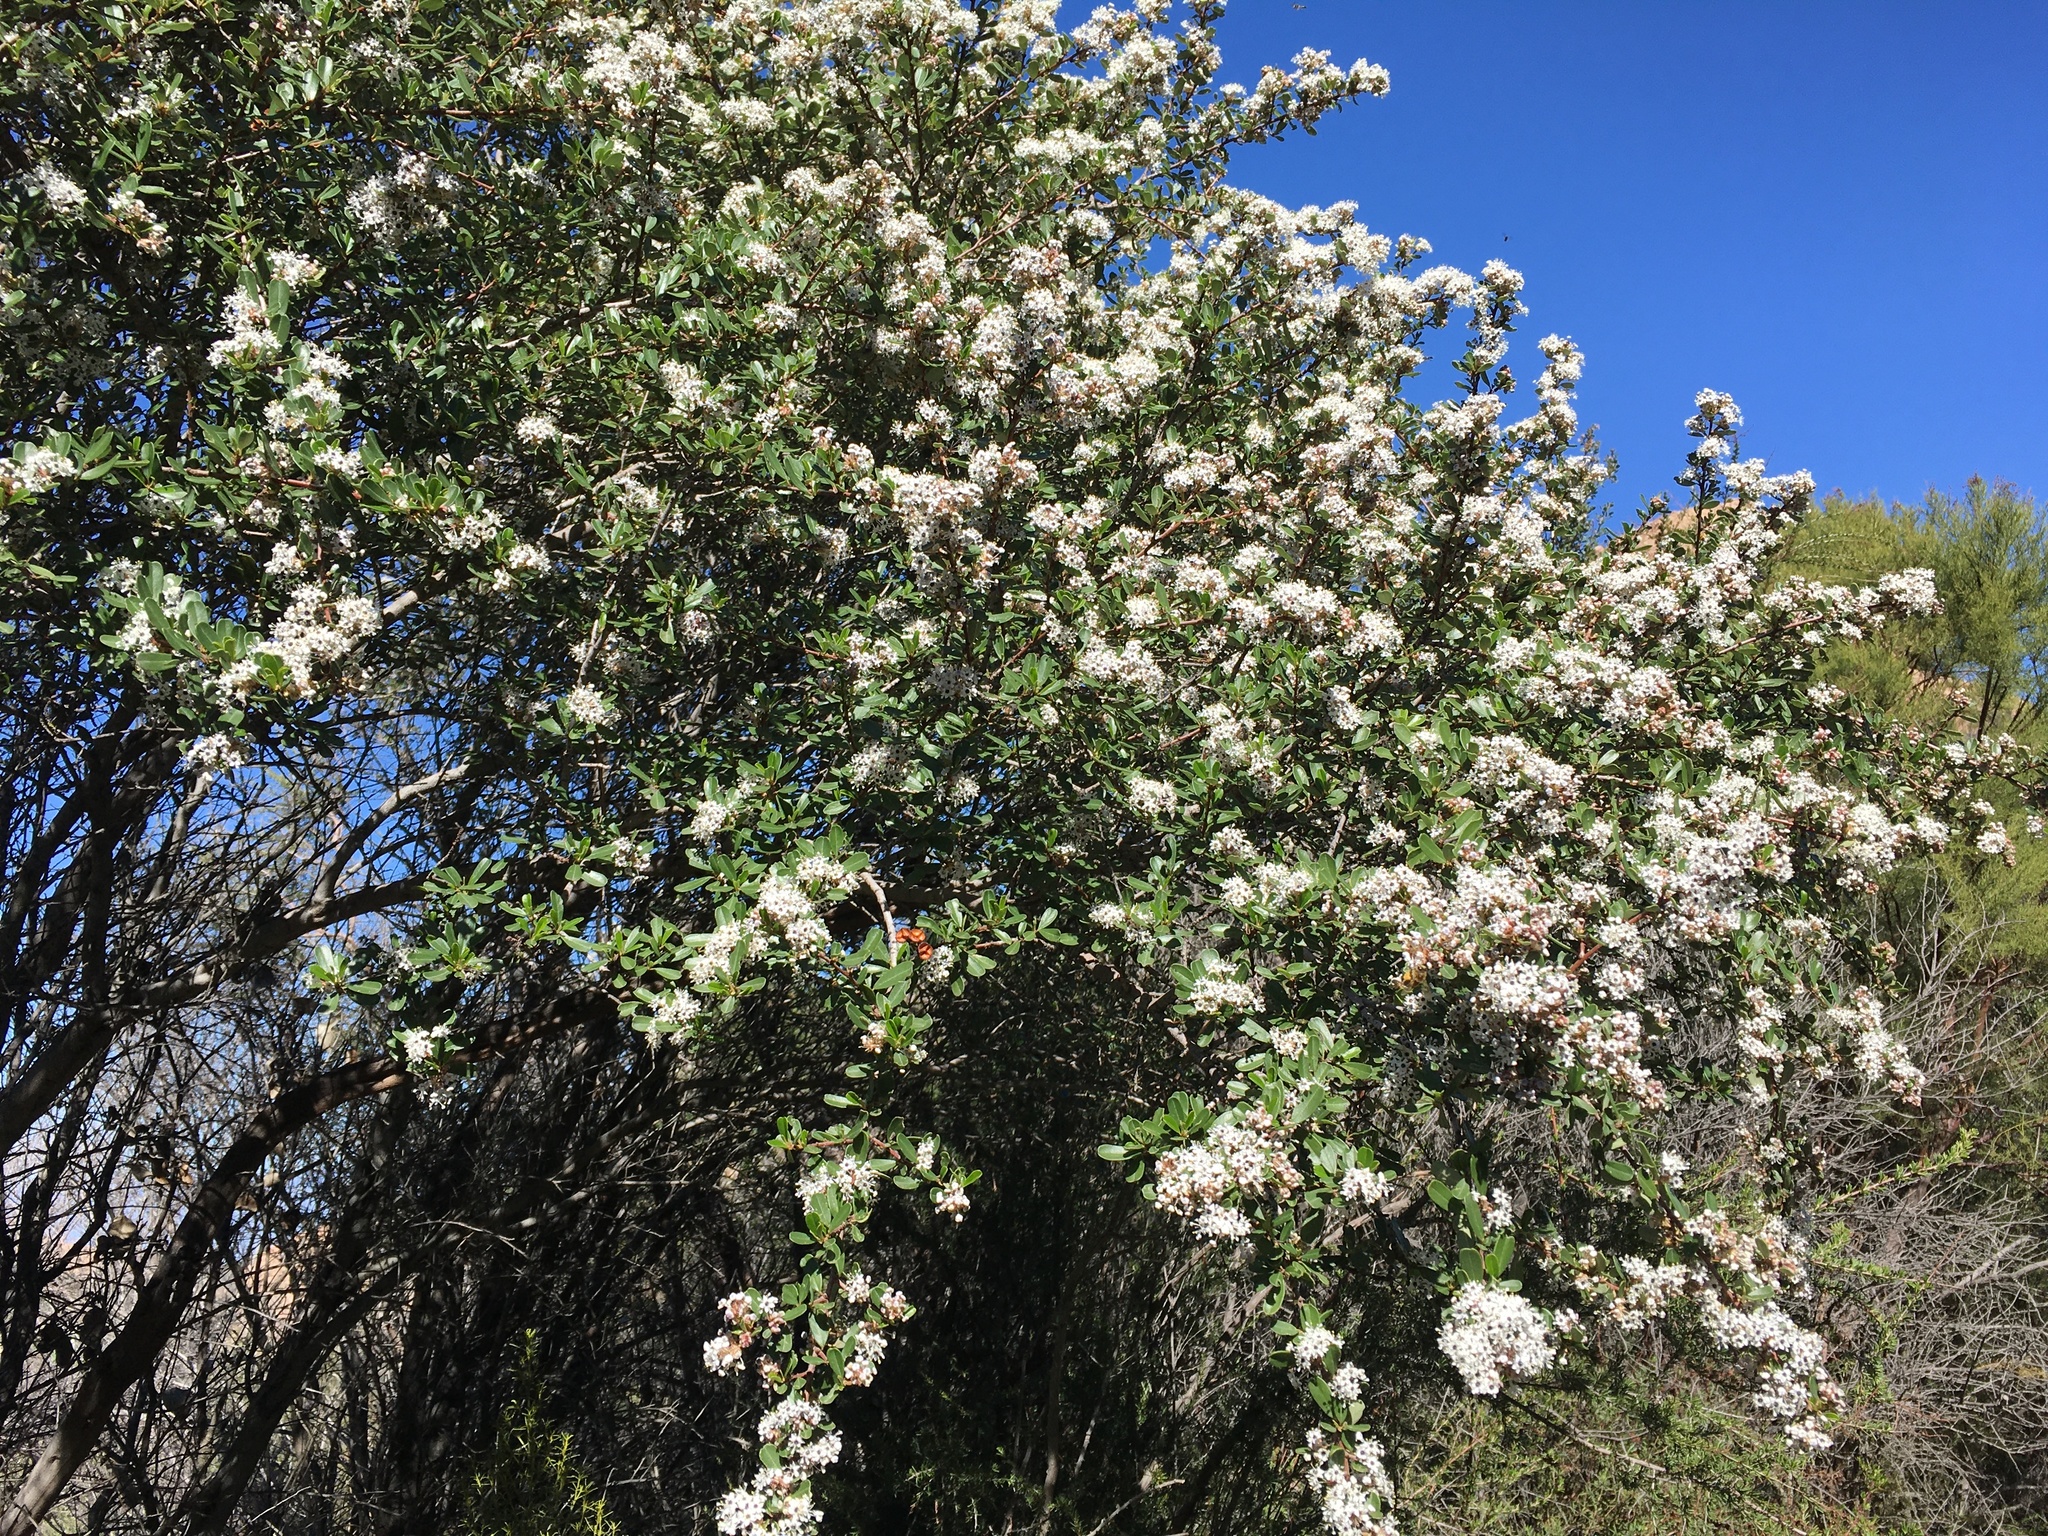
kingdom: Plantae
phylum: Tracheophyta
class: Magnoliopsida
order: Rosales
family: Rhamnaceae
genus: Ceanothus
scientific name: Ceanothus megacarpus
